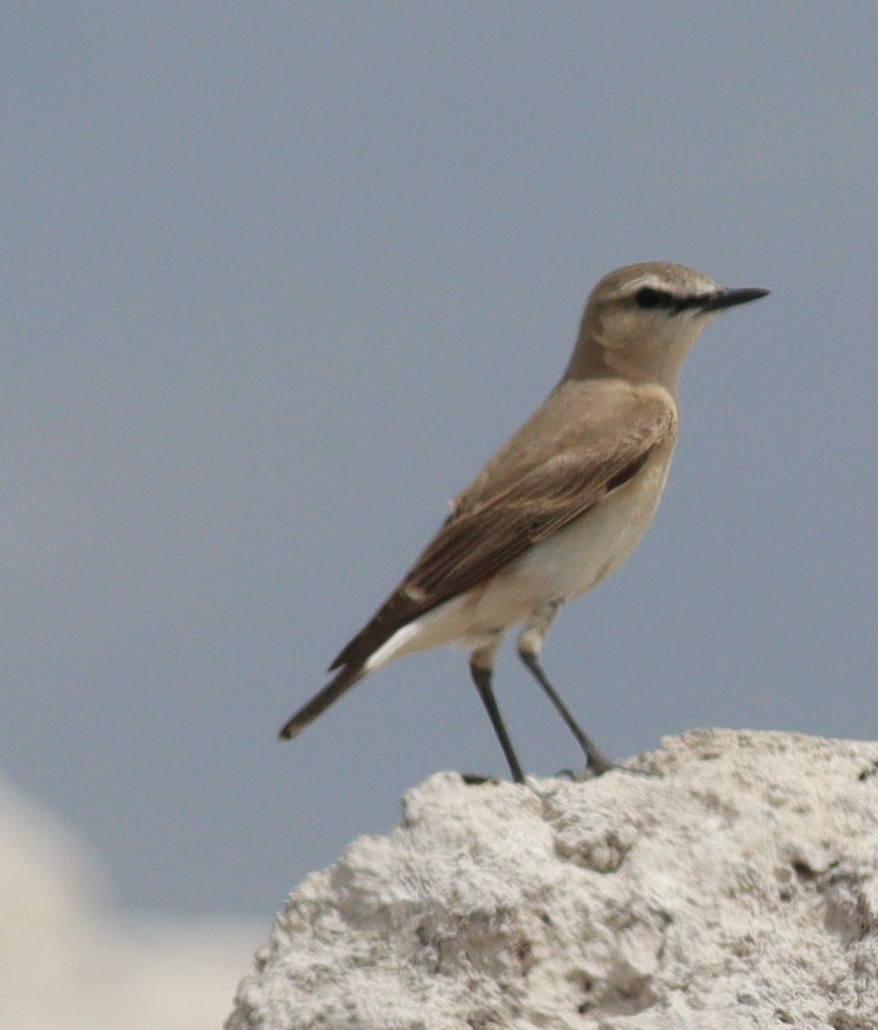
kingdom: Animalia
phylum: Chordata
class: Aves
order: Passeriformes
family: Muscicapidae
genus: Oenanthe
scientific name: Oenanthe isabellina
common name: Isabelline wheatear
